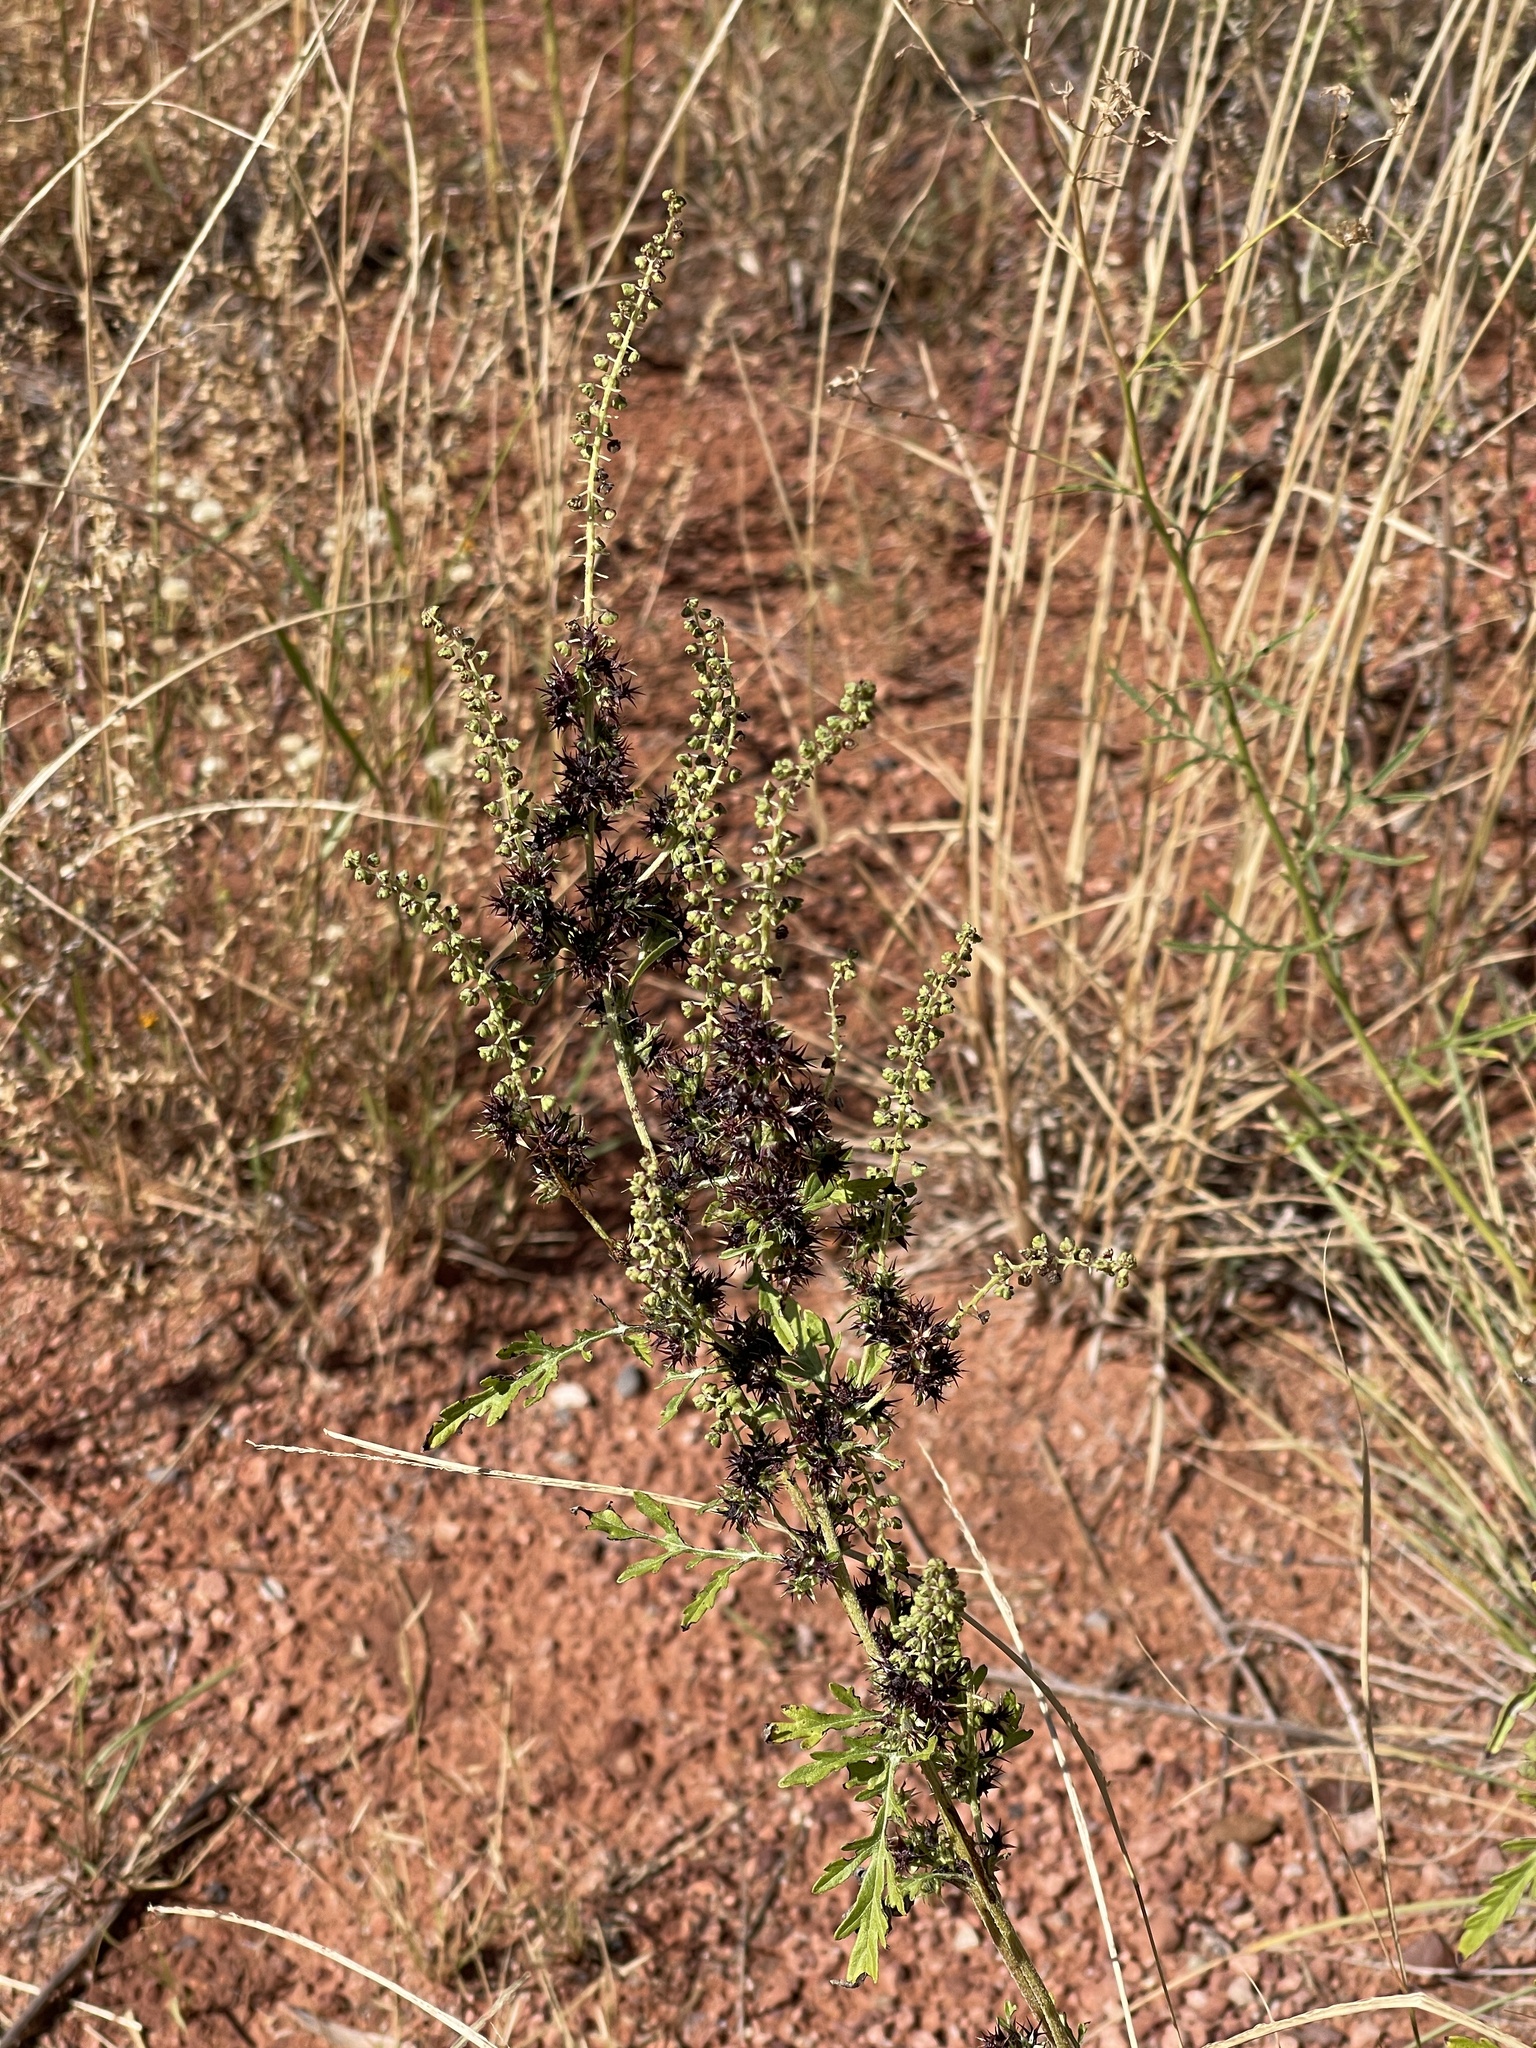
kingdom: Plantae
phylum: Tracheophyta
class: Magnoliopsida
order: Asterales
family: Asteraceae
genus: Ambrosia
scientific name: Ambrosia acanthicarpa
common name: Hooker's bur ragweed
